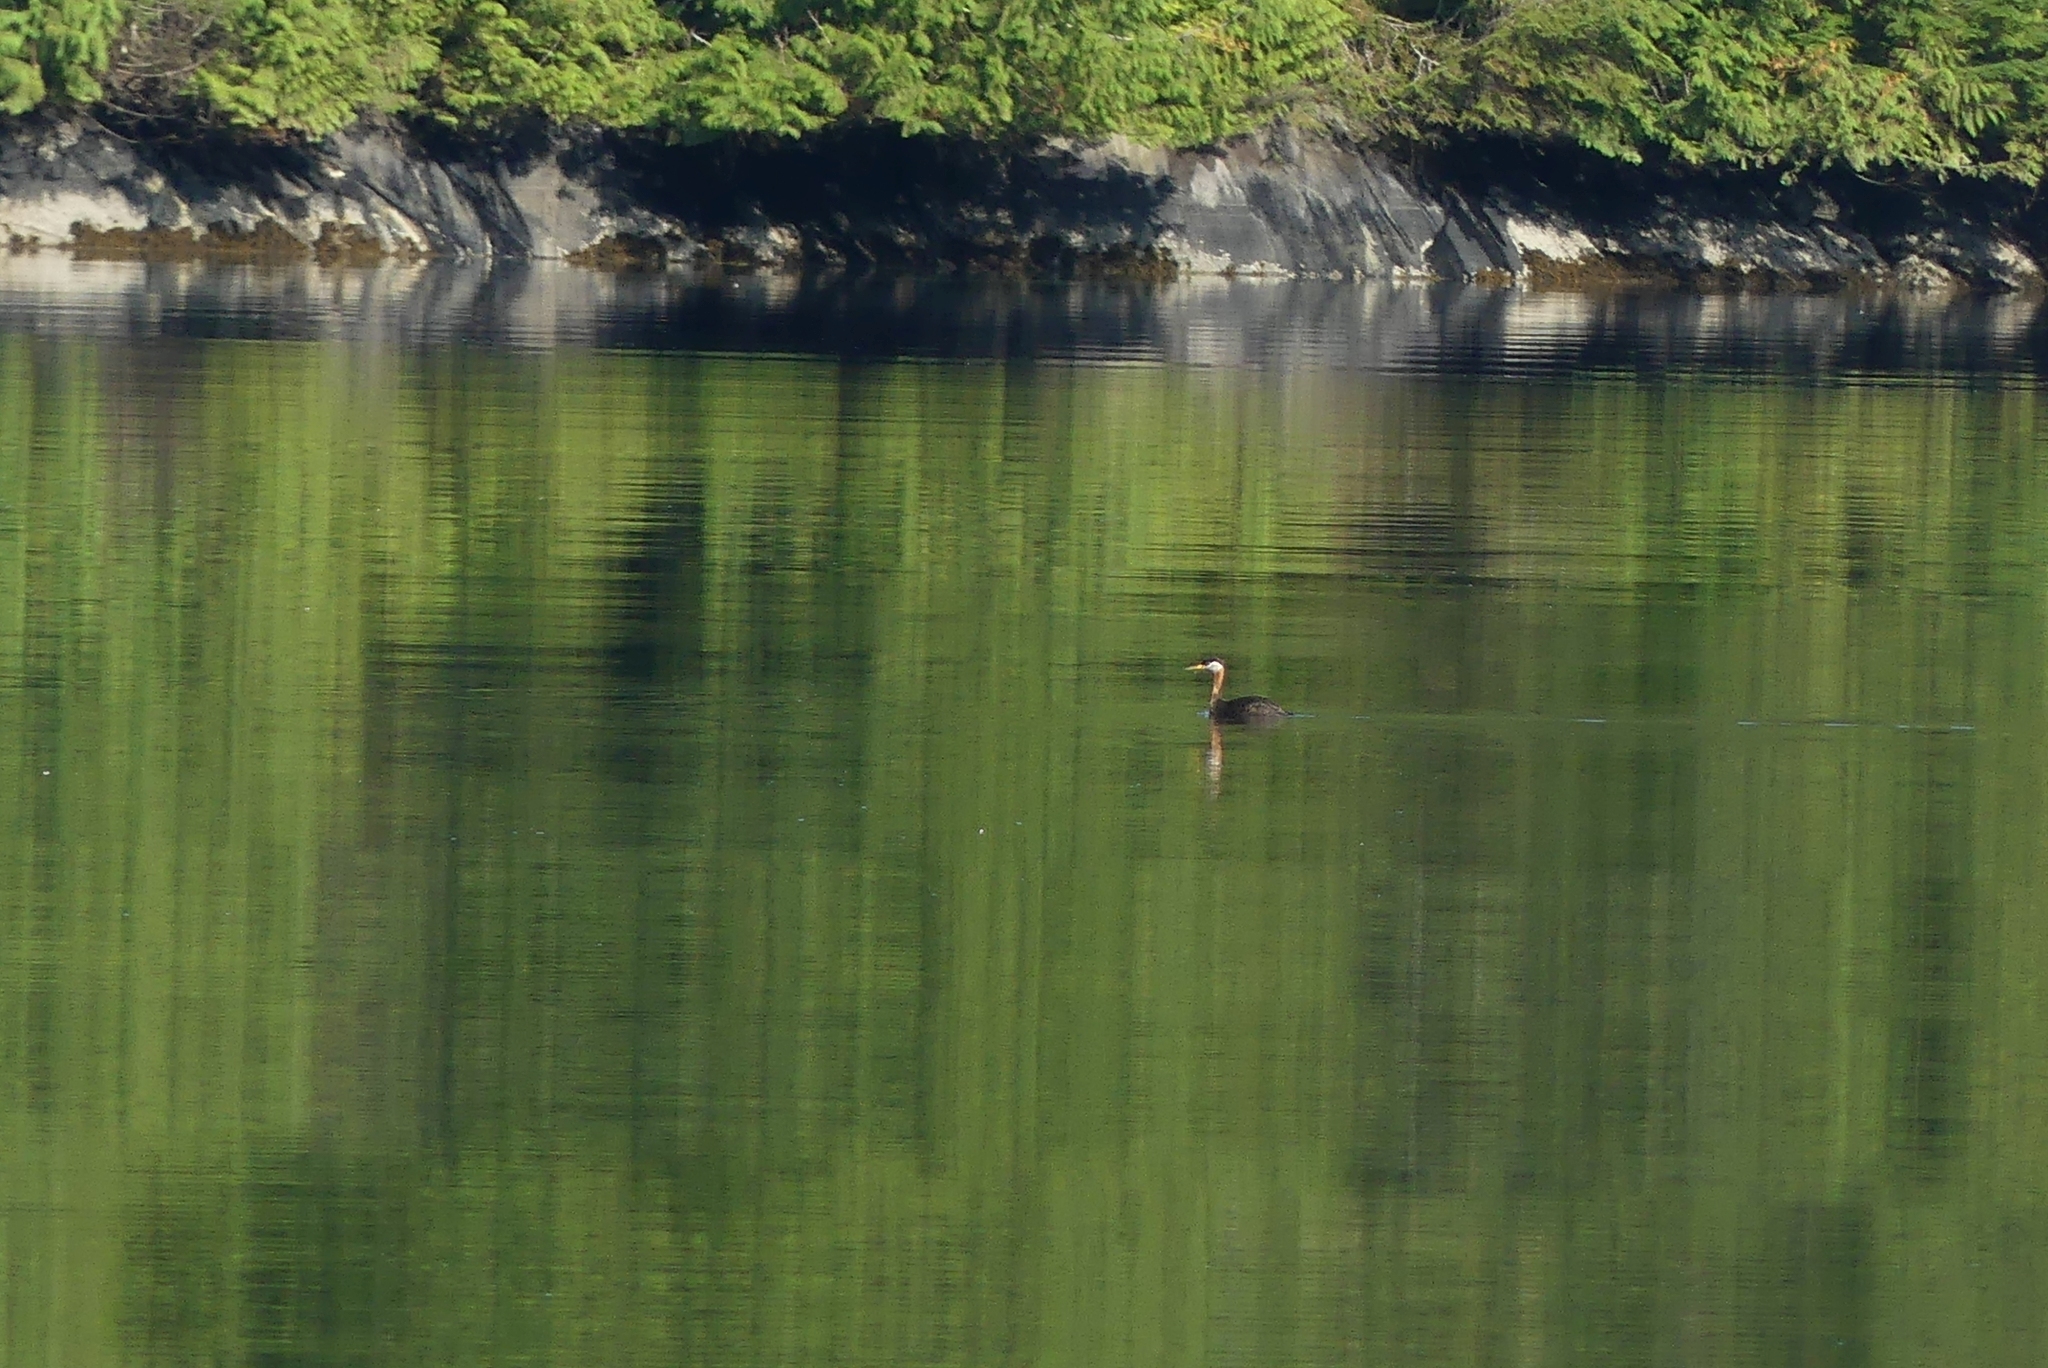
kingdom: Animalia
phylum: Chordata
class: Aves
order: Podicipediformes
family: Podicipedidae
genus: Podiceps
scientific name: Podiceps grisegena
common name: Red-necked grebe
